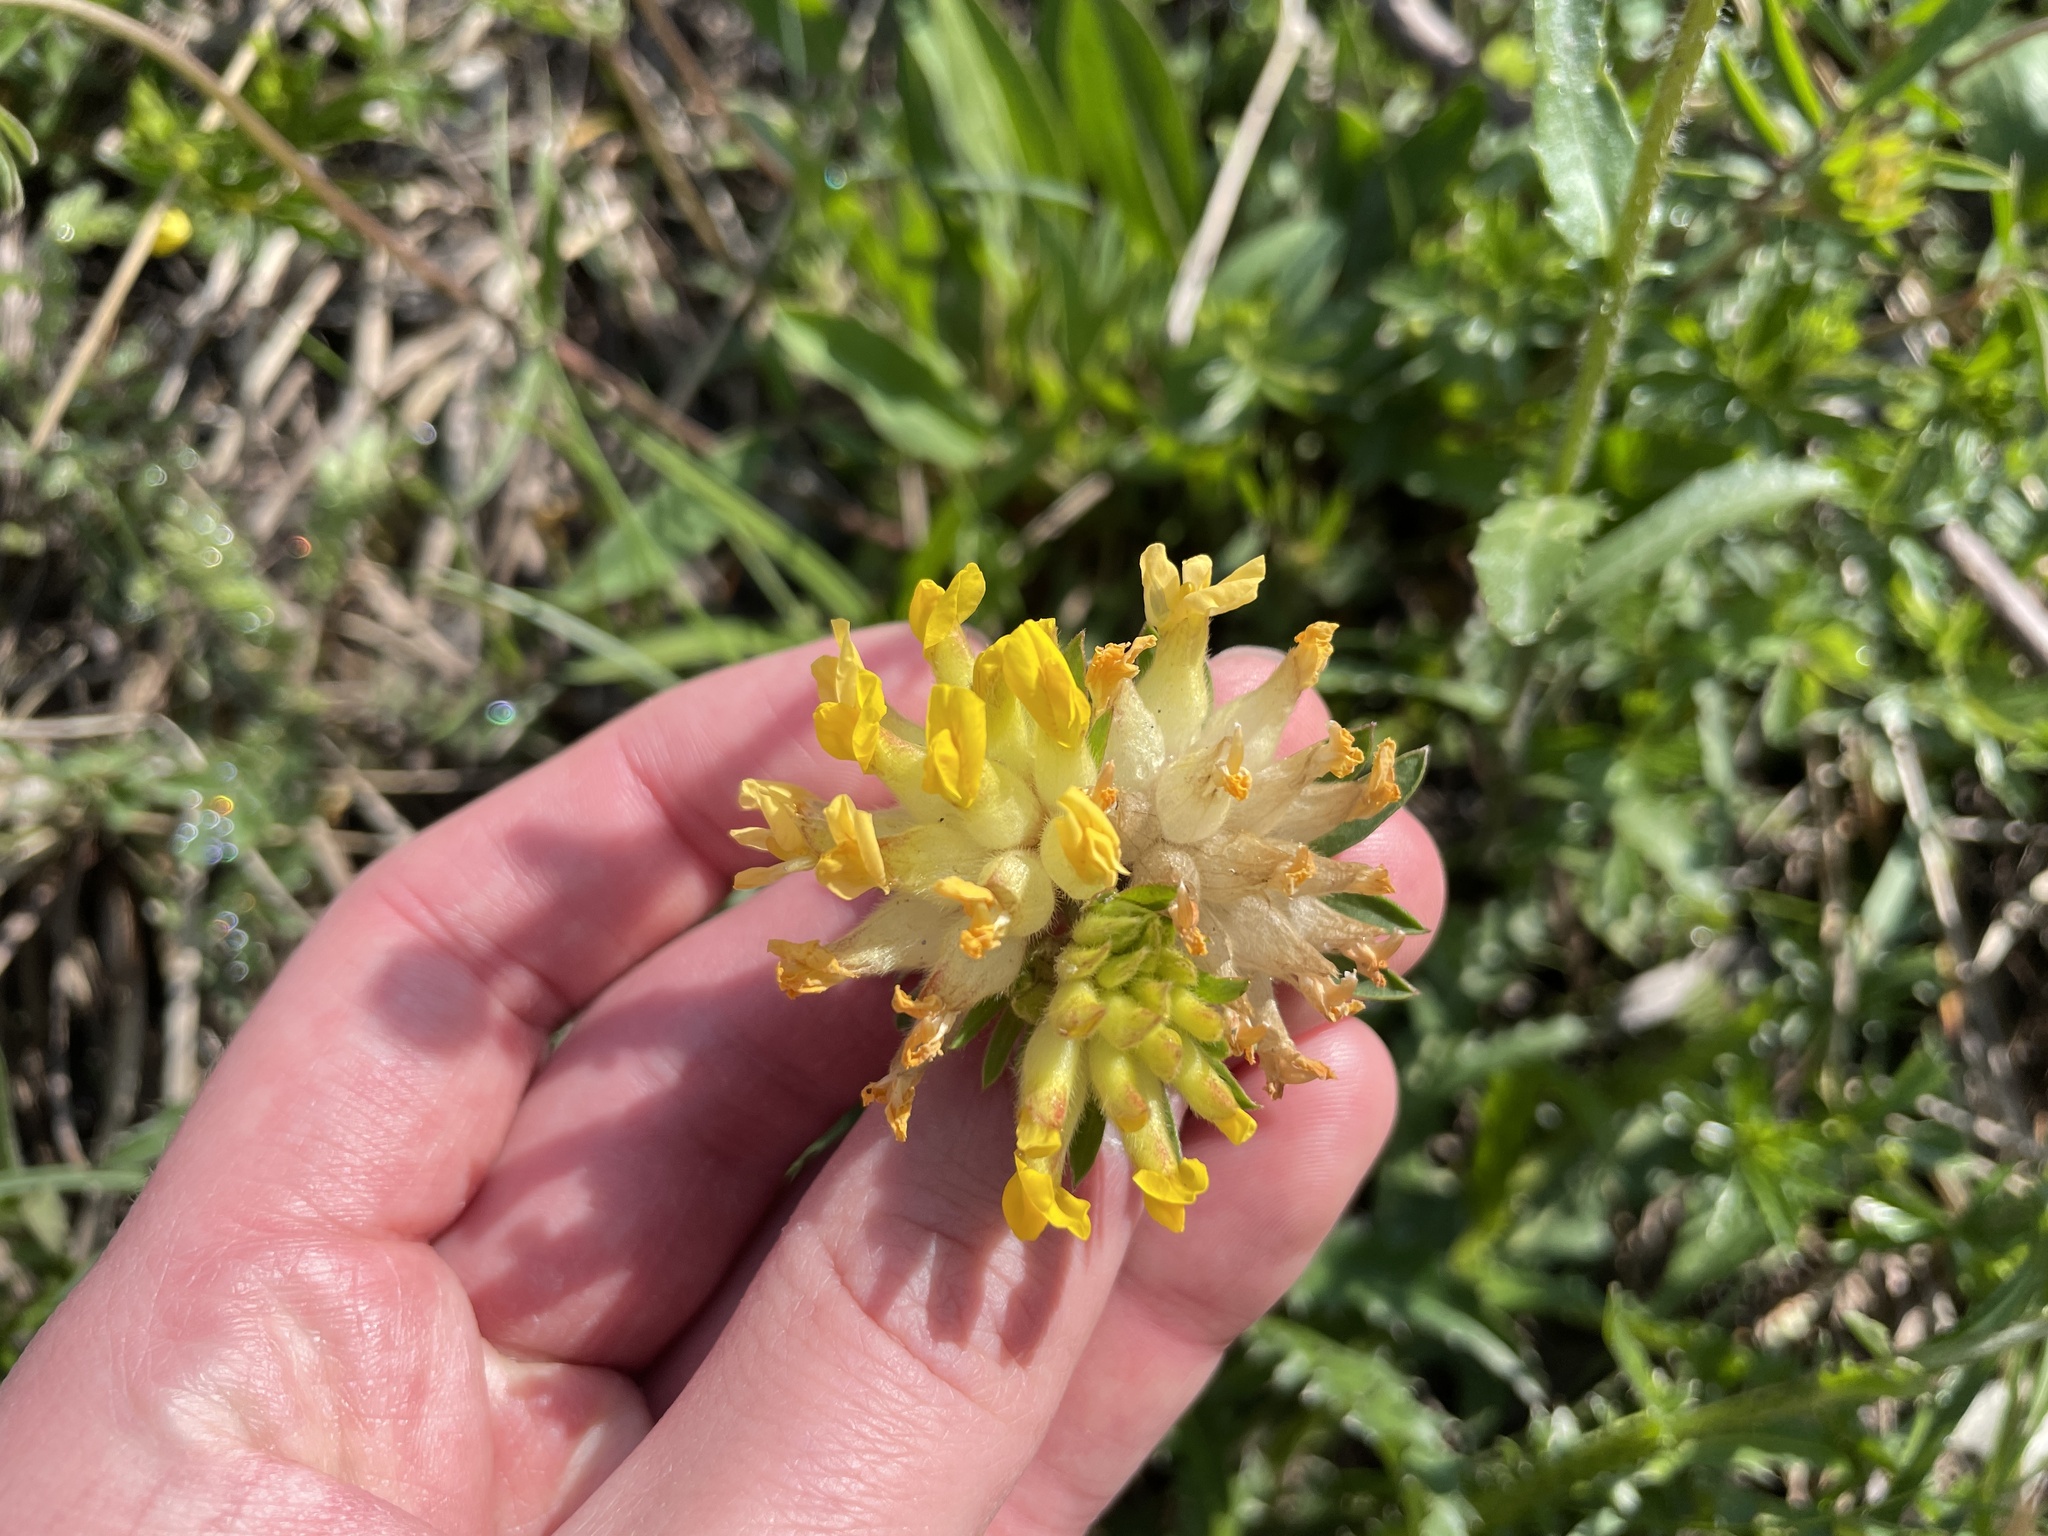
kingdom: Plantae
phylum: Tracheophyta
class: Magnoliopsida
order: Fabales
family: Fabaceae
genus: Anthyllis
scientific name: Anthyllis vulneraria
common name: Kidney vetch
